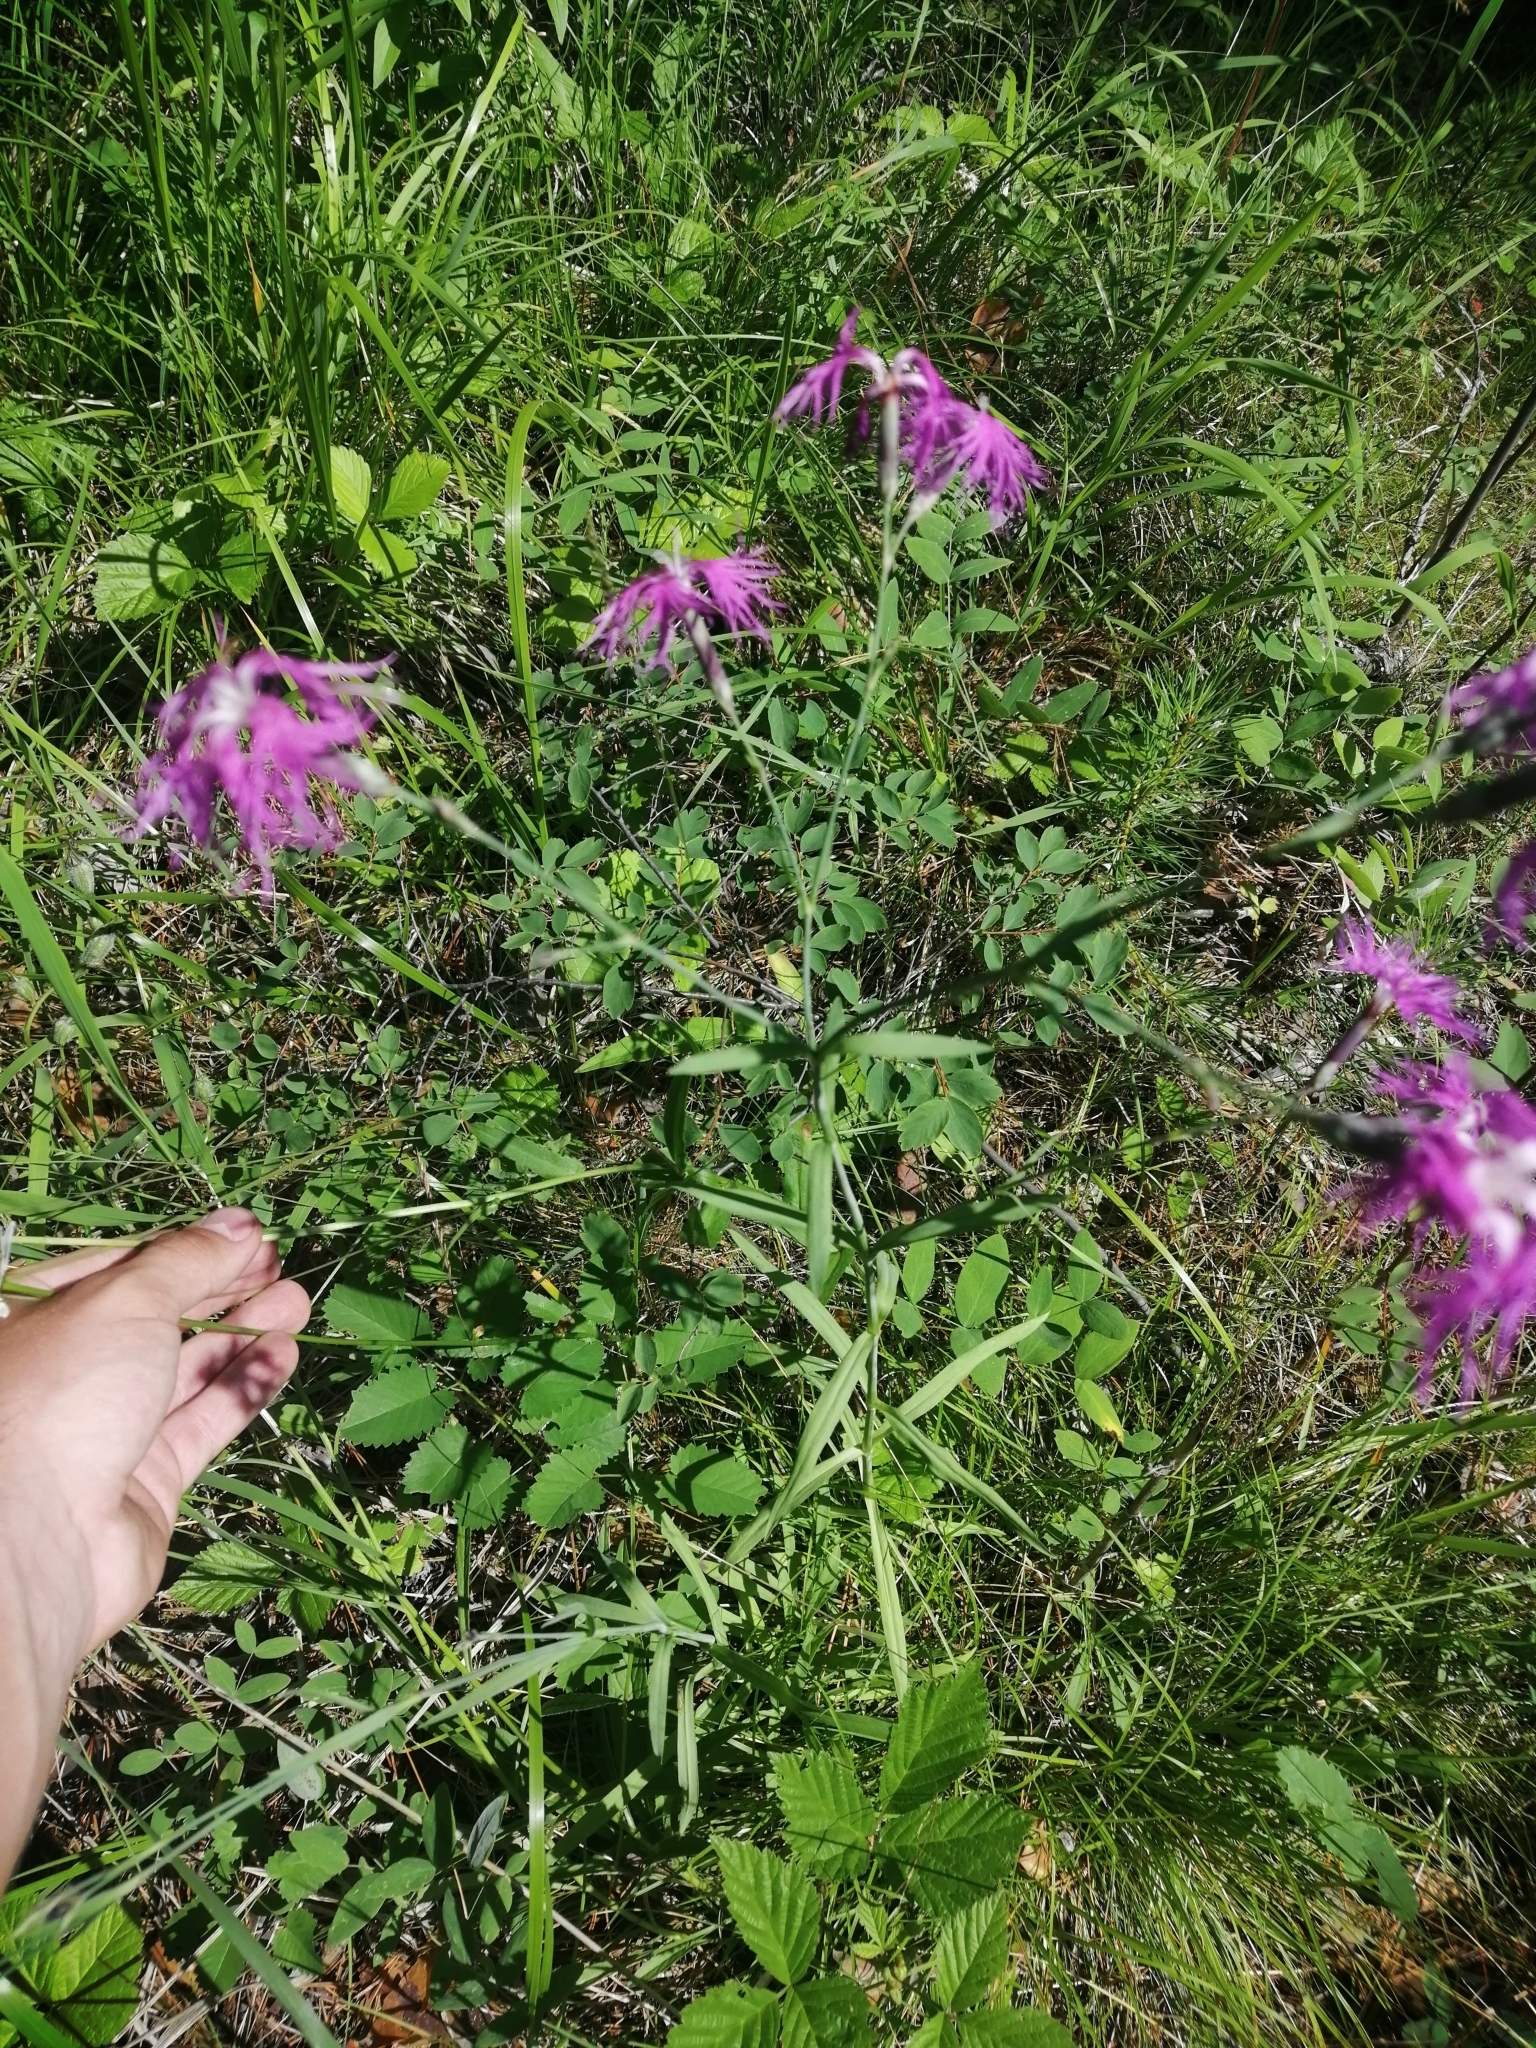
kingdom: Plantae
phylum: Tracheophyta
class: Magnoliopsida
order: Caryophyllales
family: Caryophyllaceae
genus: Dianthus
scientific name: Dianthus superbus
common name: Fringed pink
